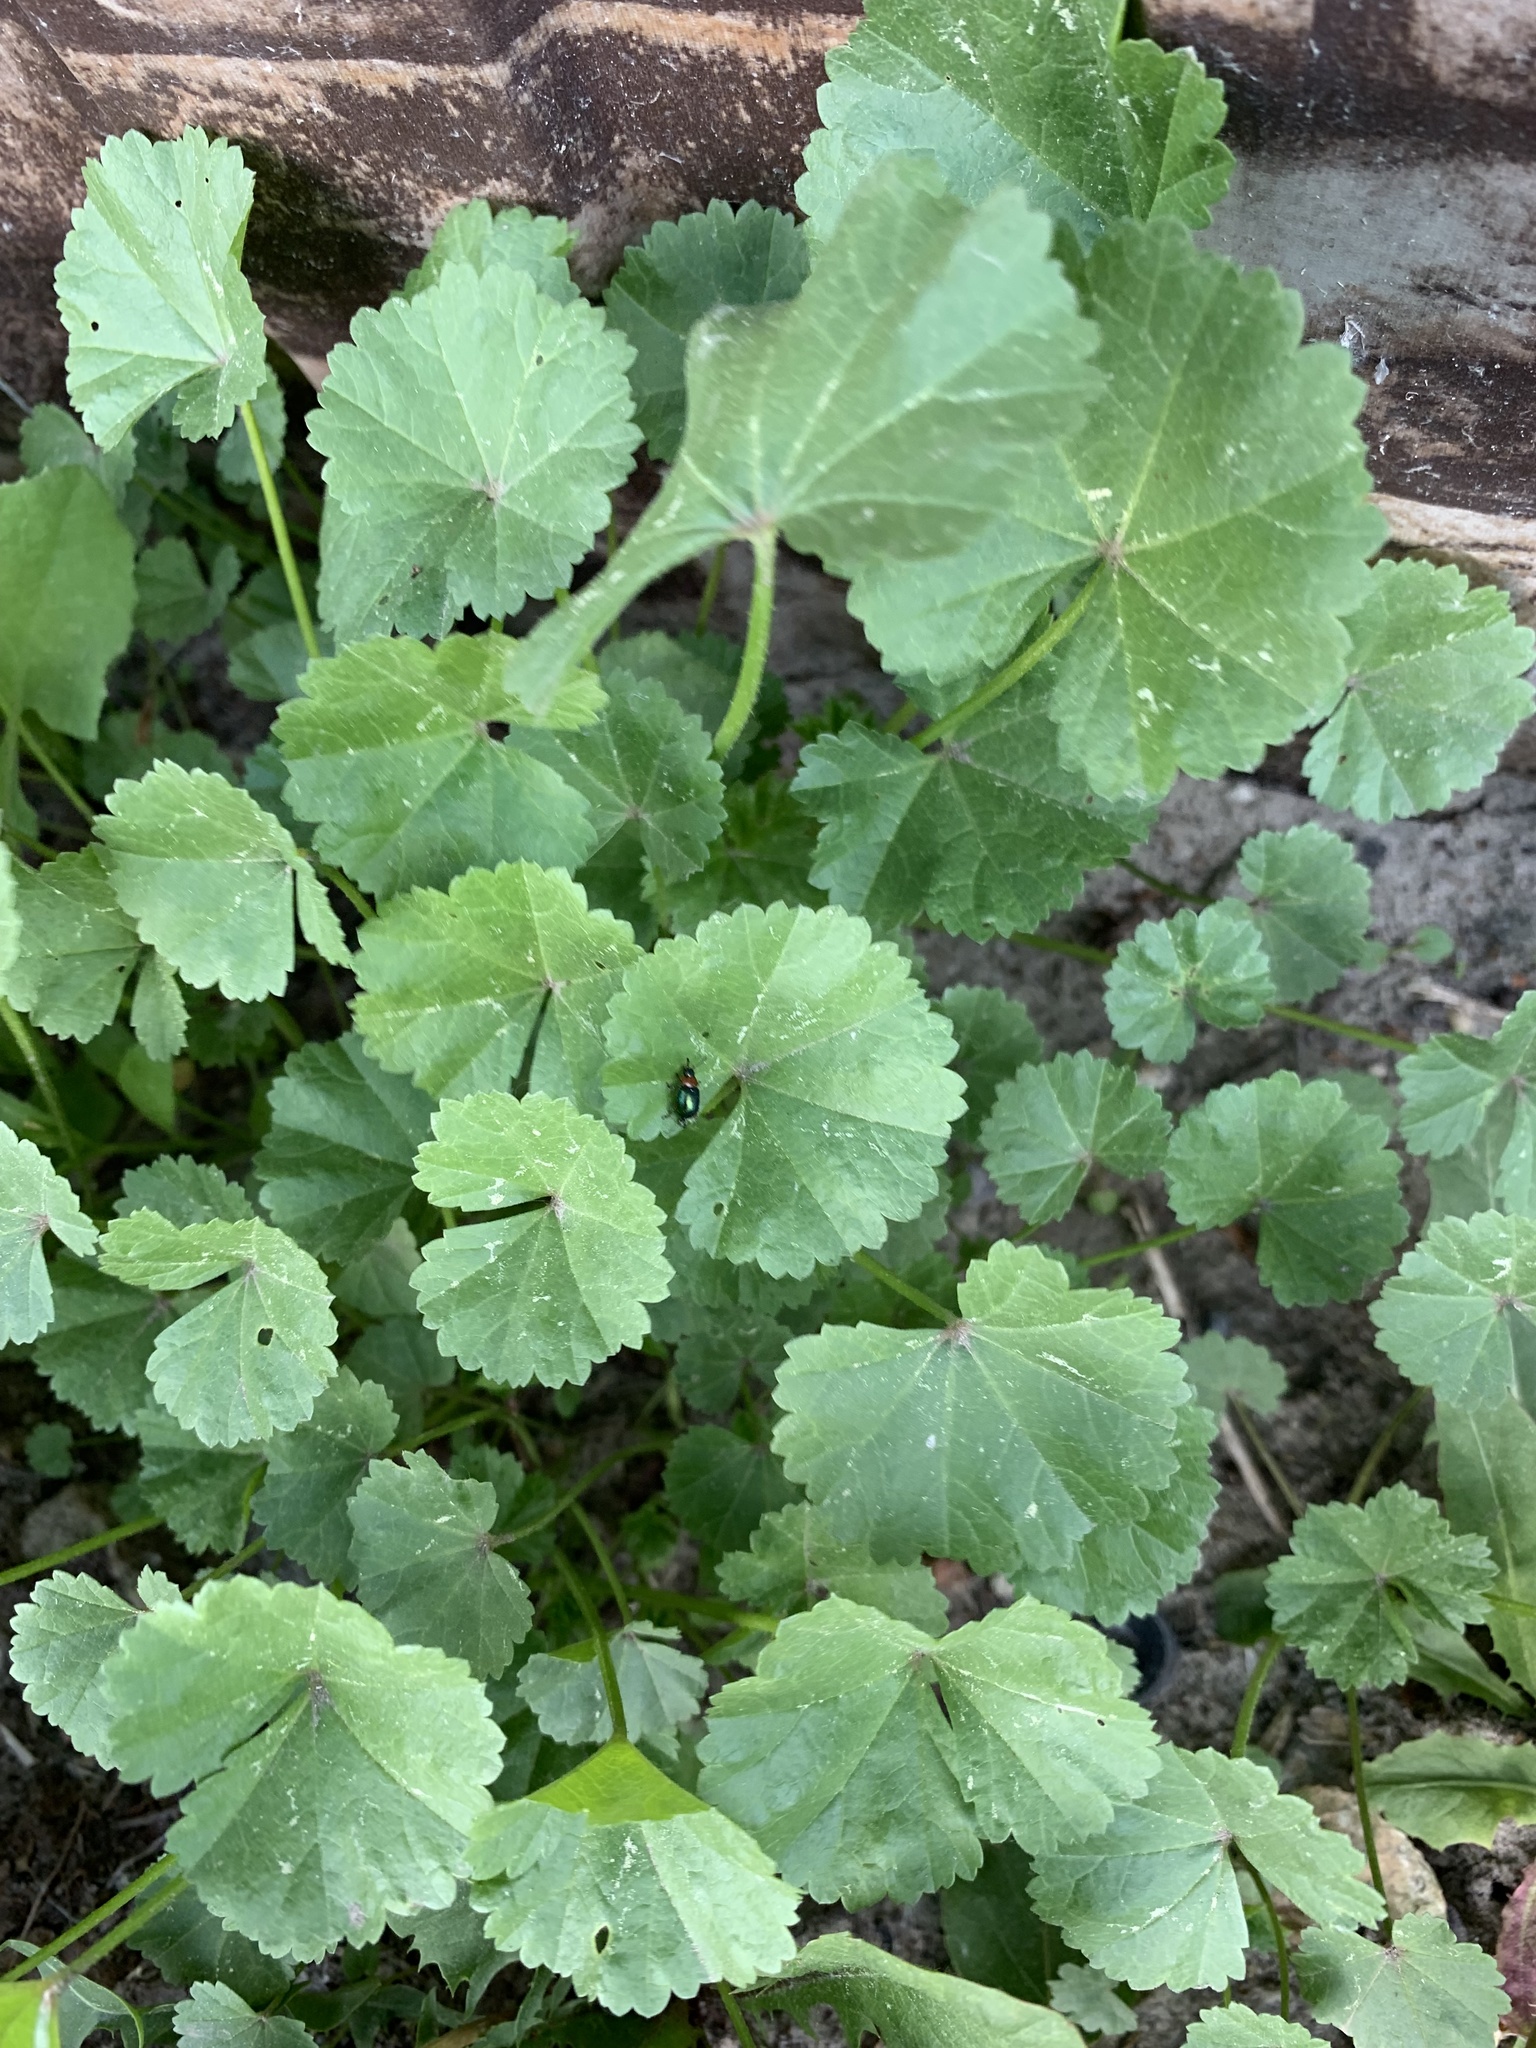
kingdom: Plantae
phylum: Tracheophyta
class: Magnoliopsida
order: Malvales
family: Malvaceae
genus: Malva
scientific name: Malva pusilla
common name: Small mallow
